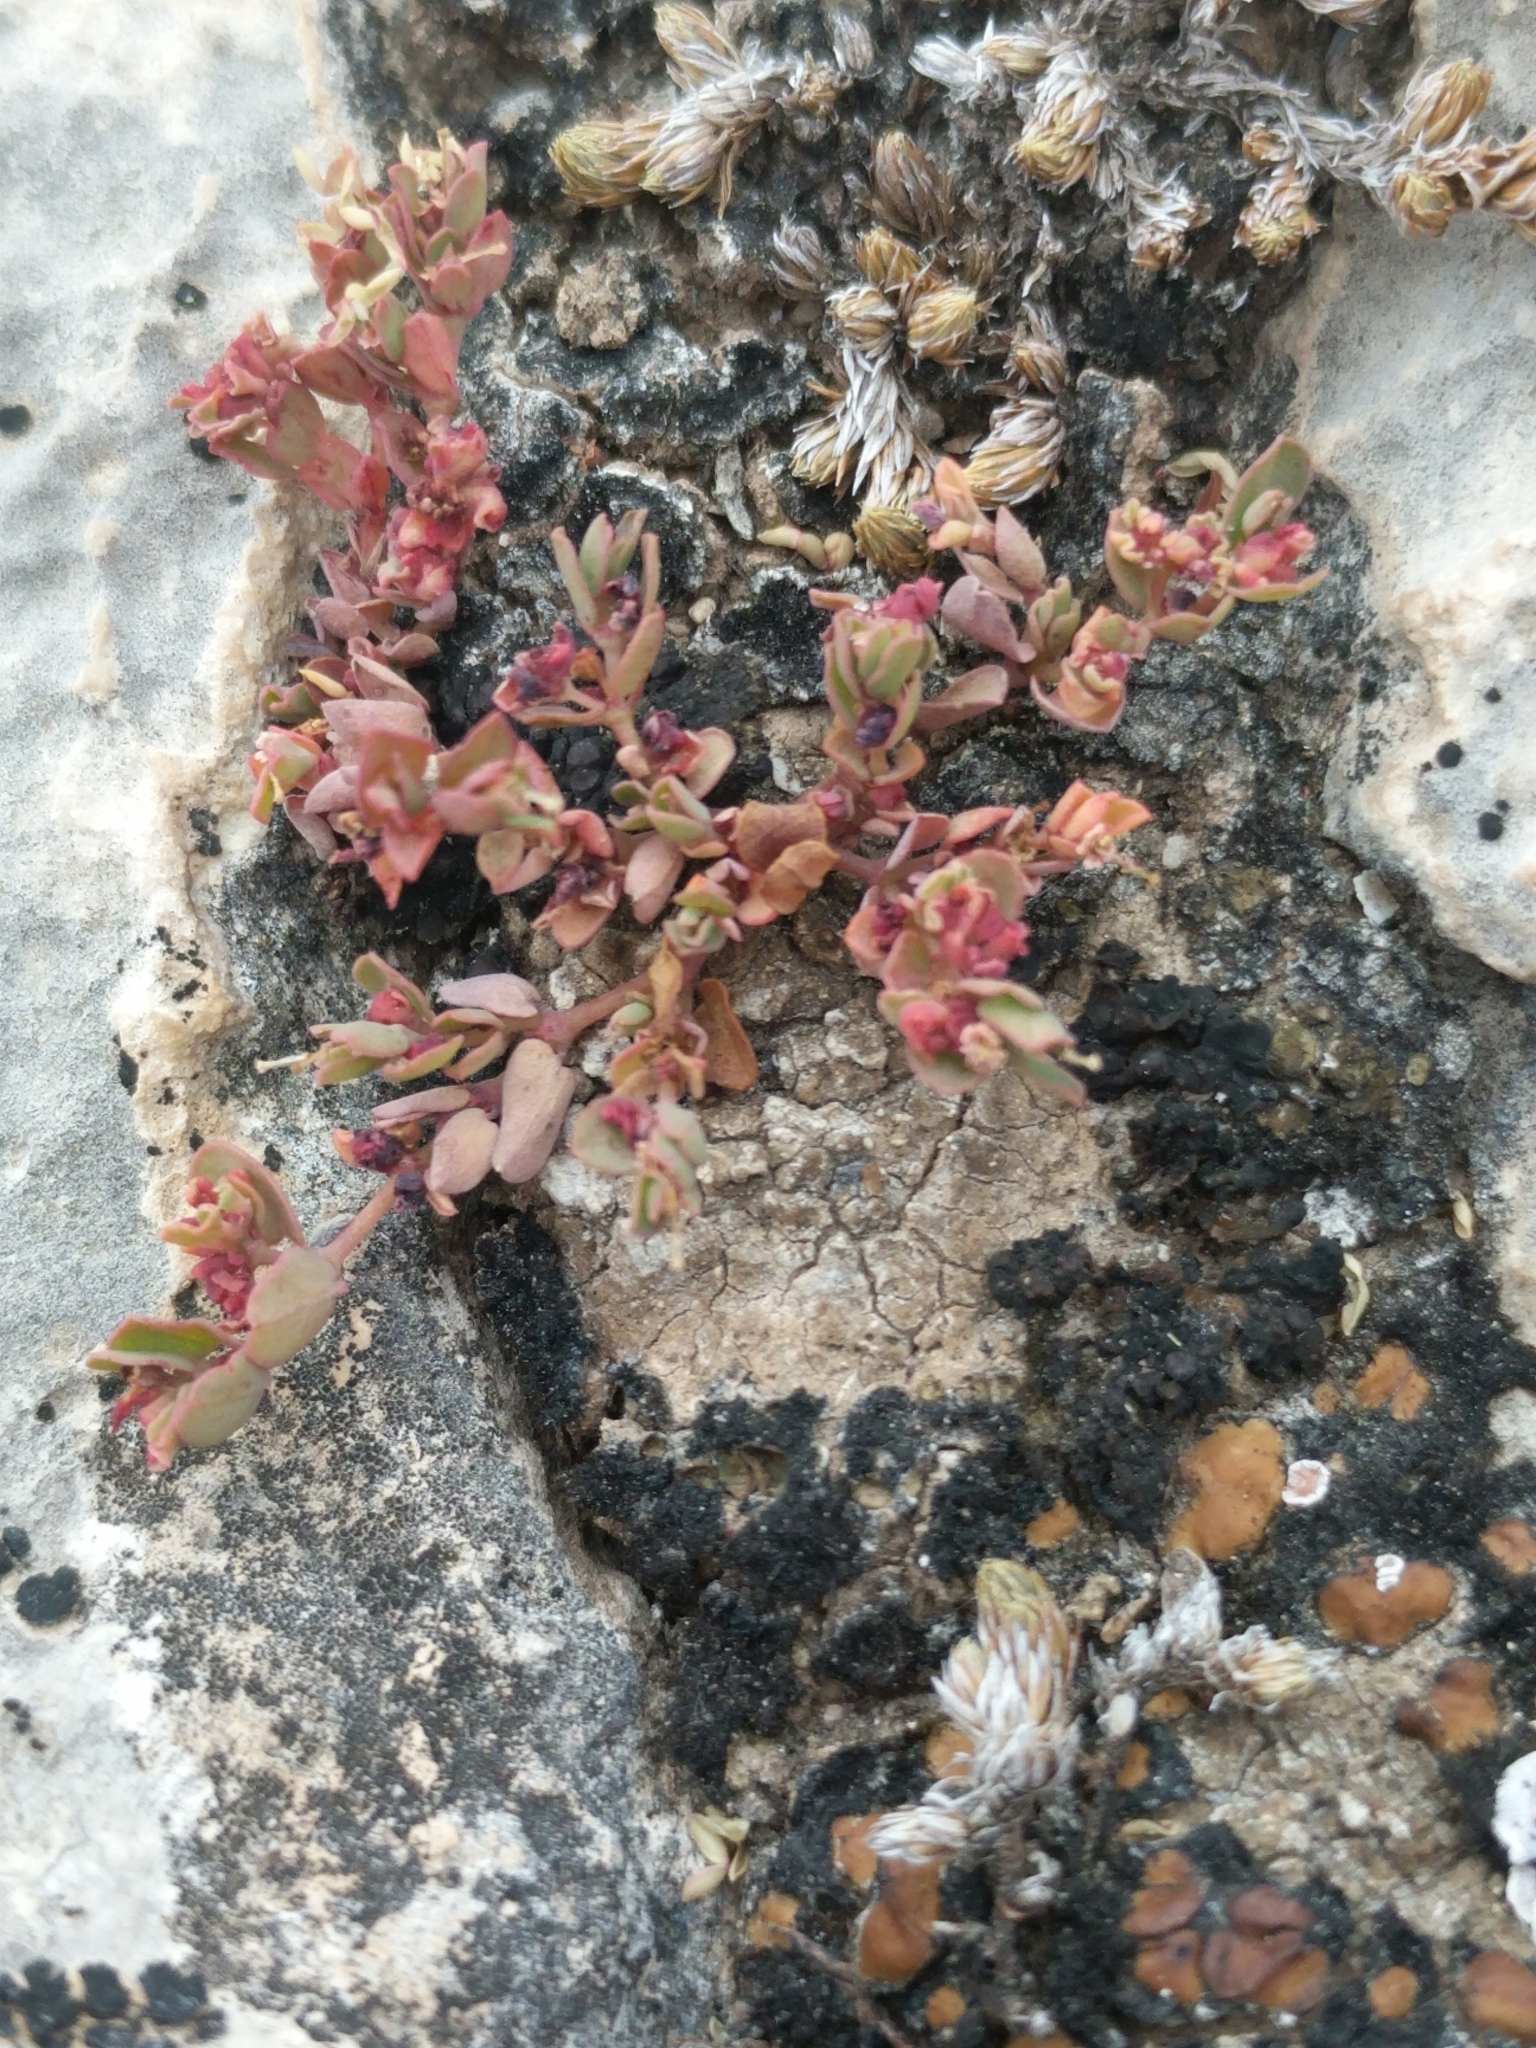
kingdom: Plantae
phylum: Tracheophyta
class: Magnoliopsida
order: Malpighiales
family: Euphorbiaceae
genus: Euphorbia
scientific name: Euphorbia serpens
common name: Matted sandmat
